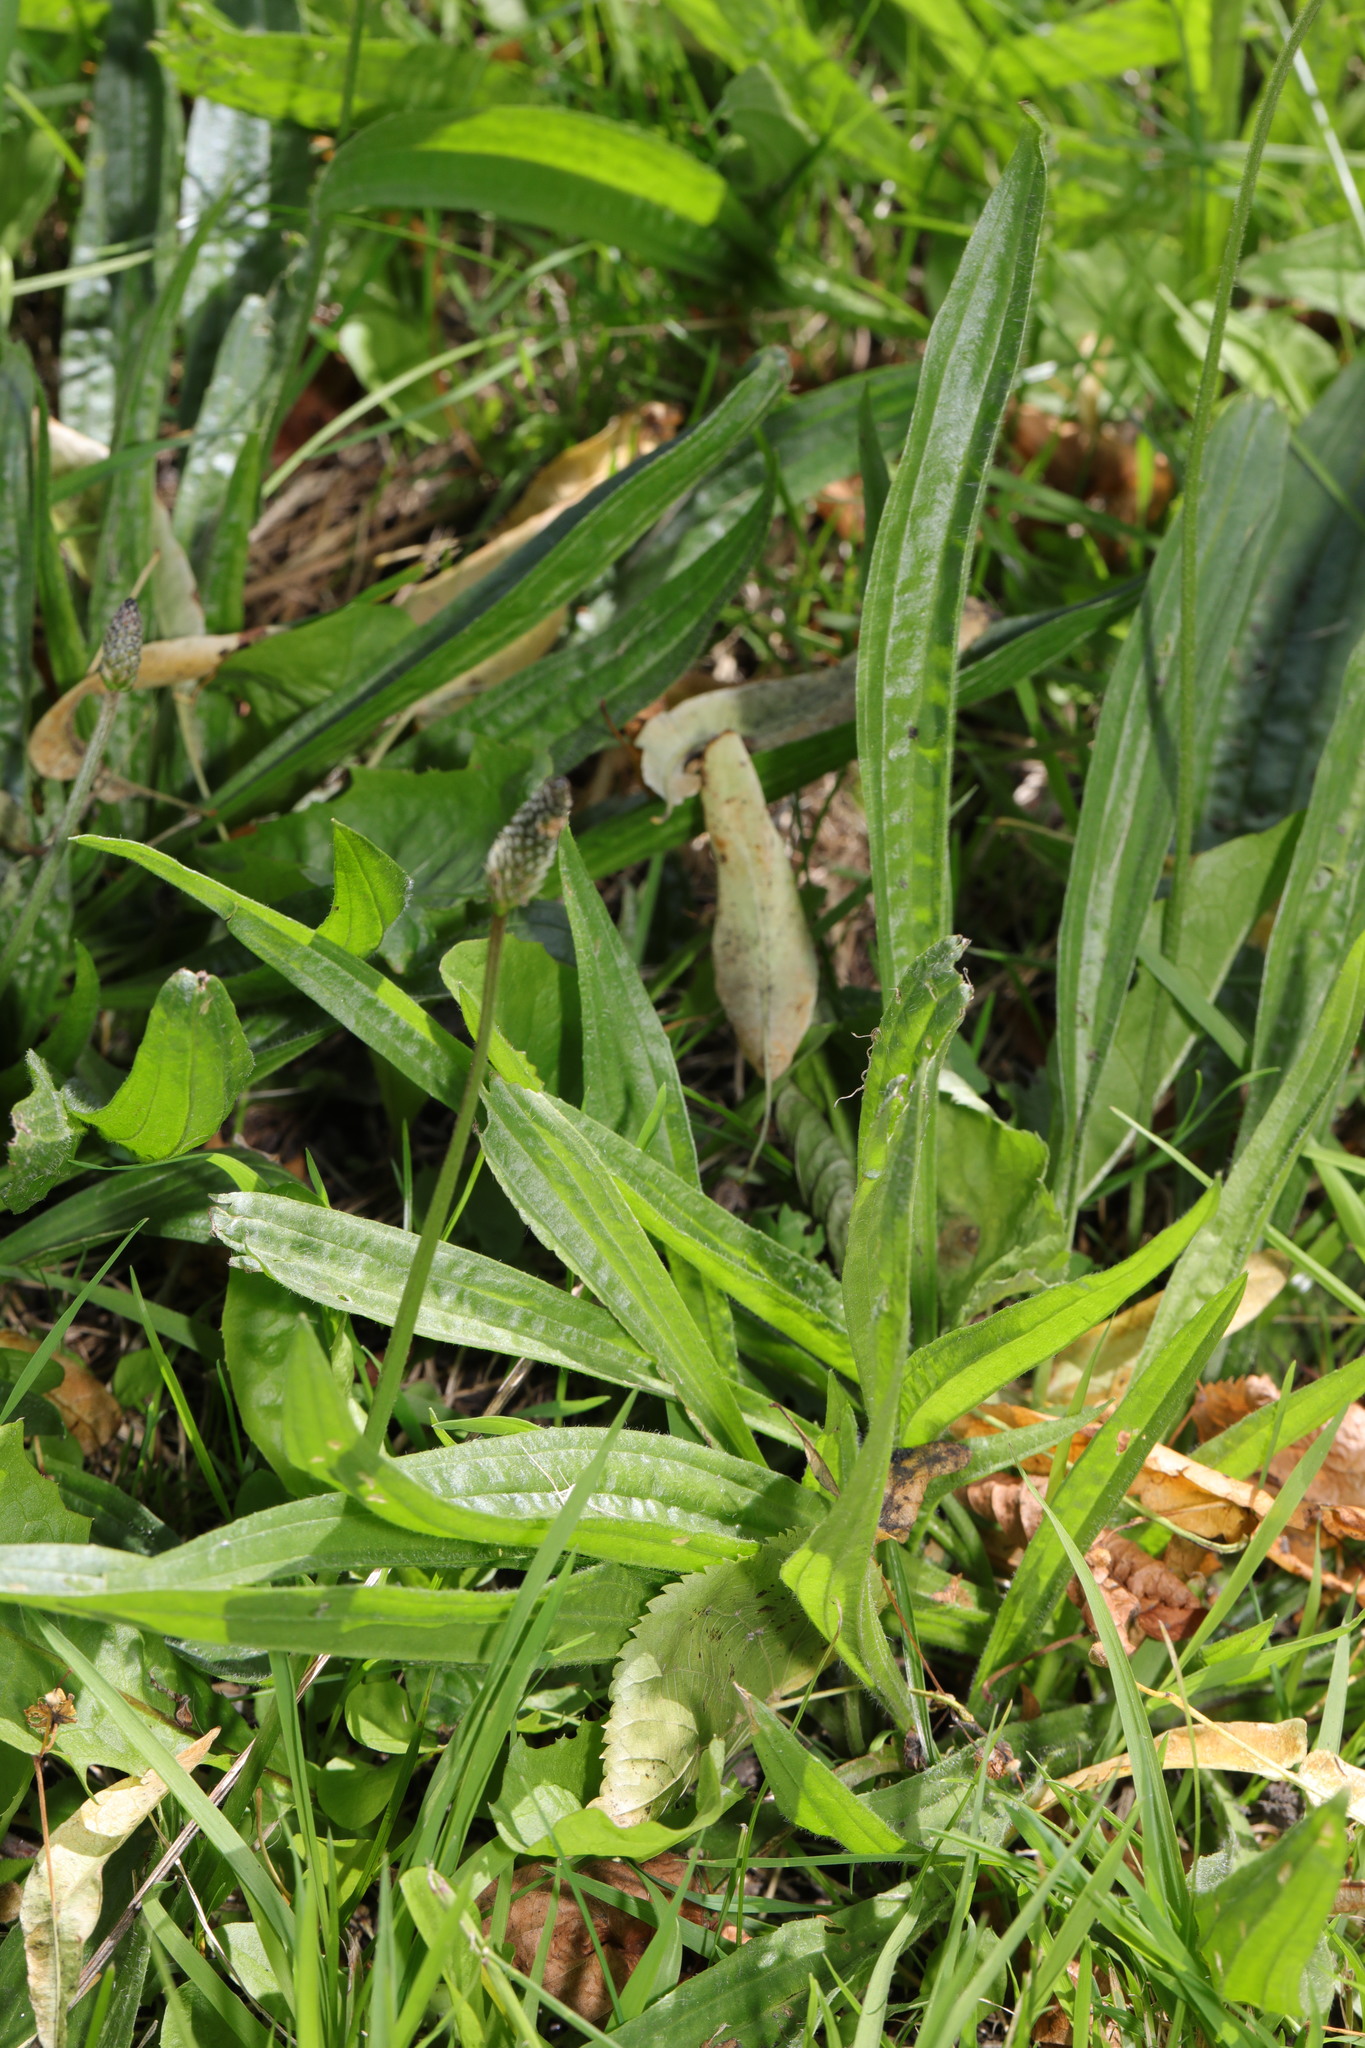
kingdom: Plantae
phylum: Tracheophyta
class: Magnoliopsida
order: Lamiales
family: Plantaginaceae
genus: Plantago
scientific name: Plantago lanceolata
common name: Ribwort plantain
